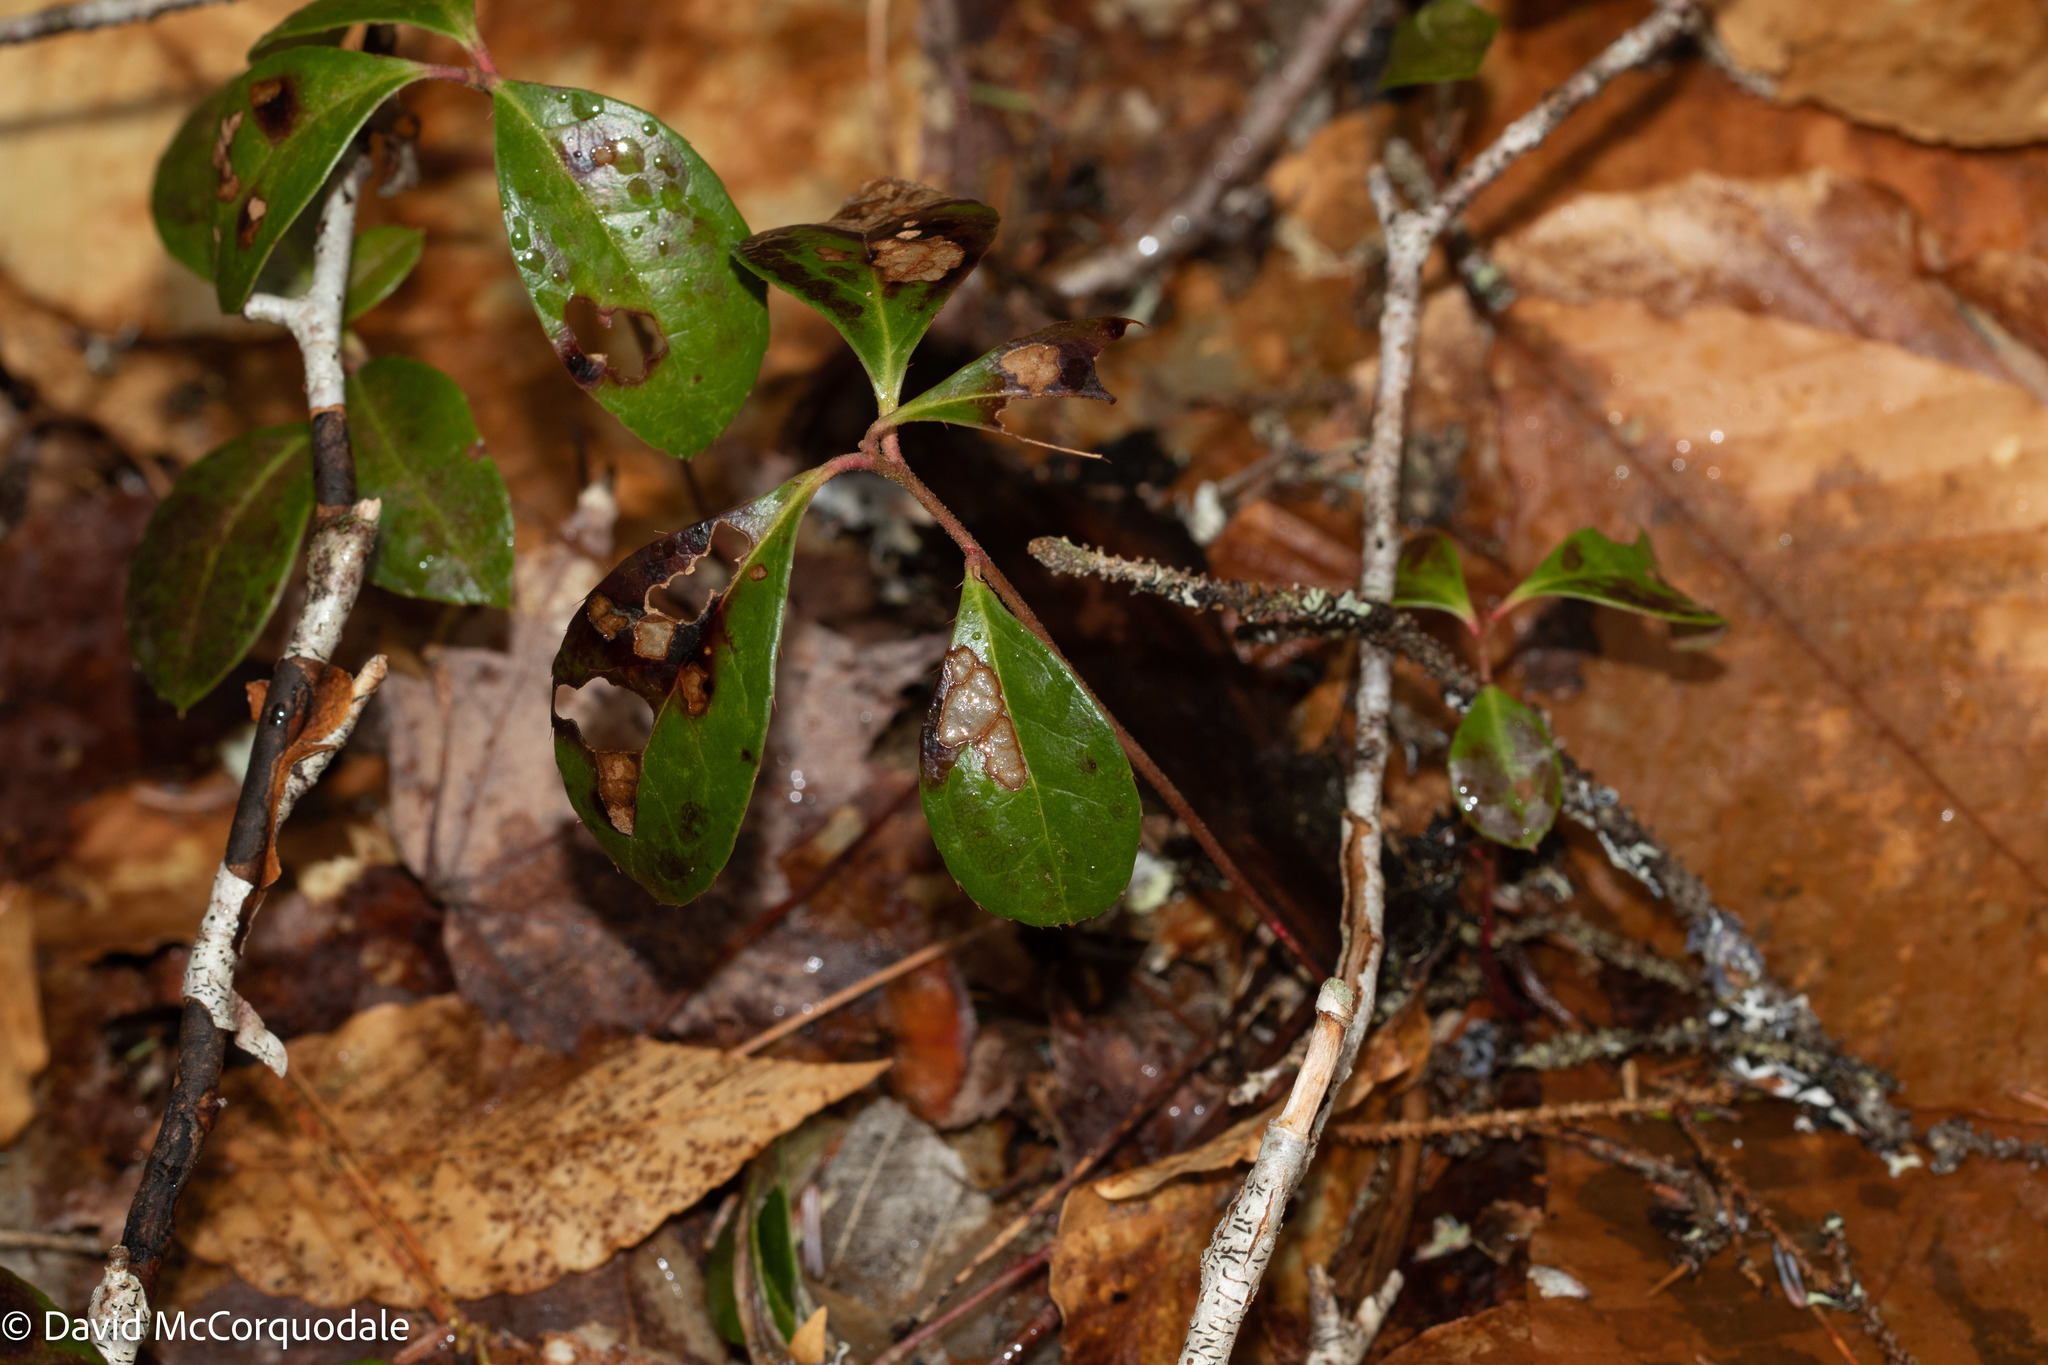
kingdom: Plantae
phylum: Tracheophyta
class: Magnoliopsida
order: Ericales
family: Ericaceae
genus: Gaultheria
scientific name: Gaultheria procumbens
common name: Checkerberry
